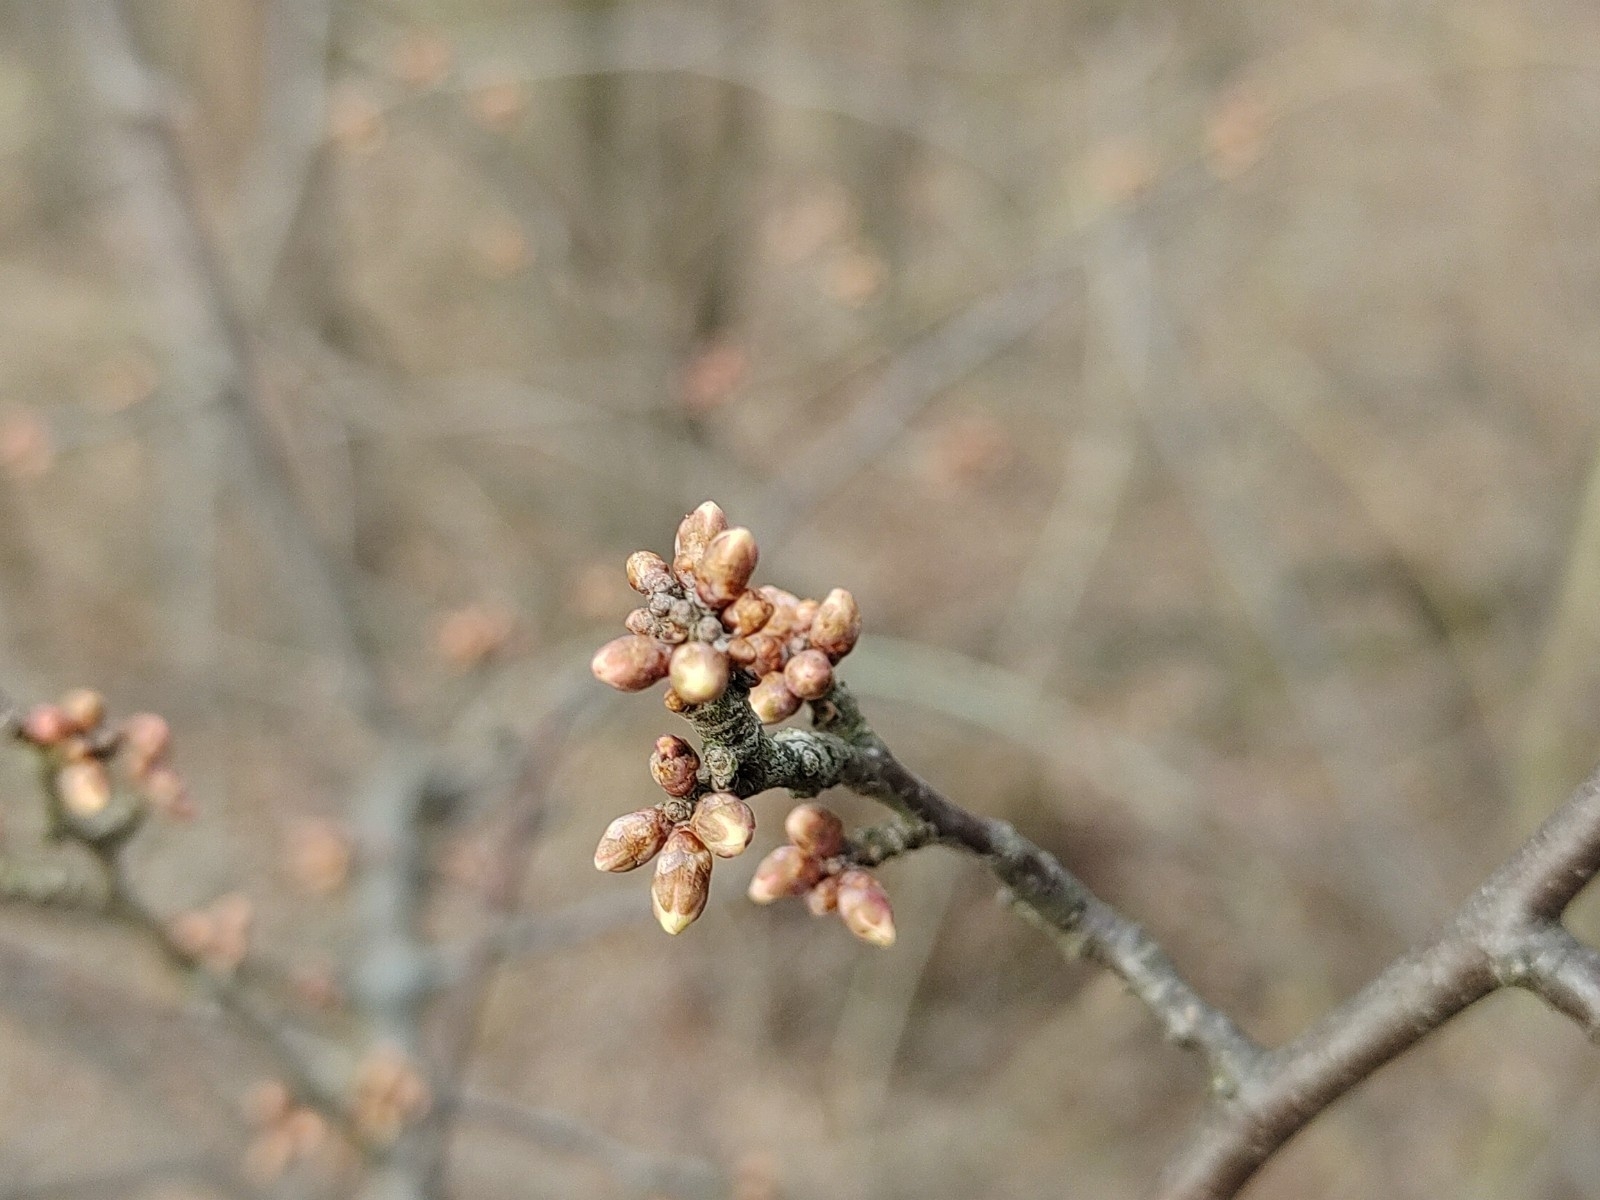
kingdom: Plantae
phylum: Tracheophyta
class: Magnoliopsida
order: Rosales
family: Rosaceae
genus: Prunus
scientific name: Prunus spinosa
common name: Blackthorn
